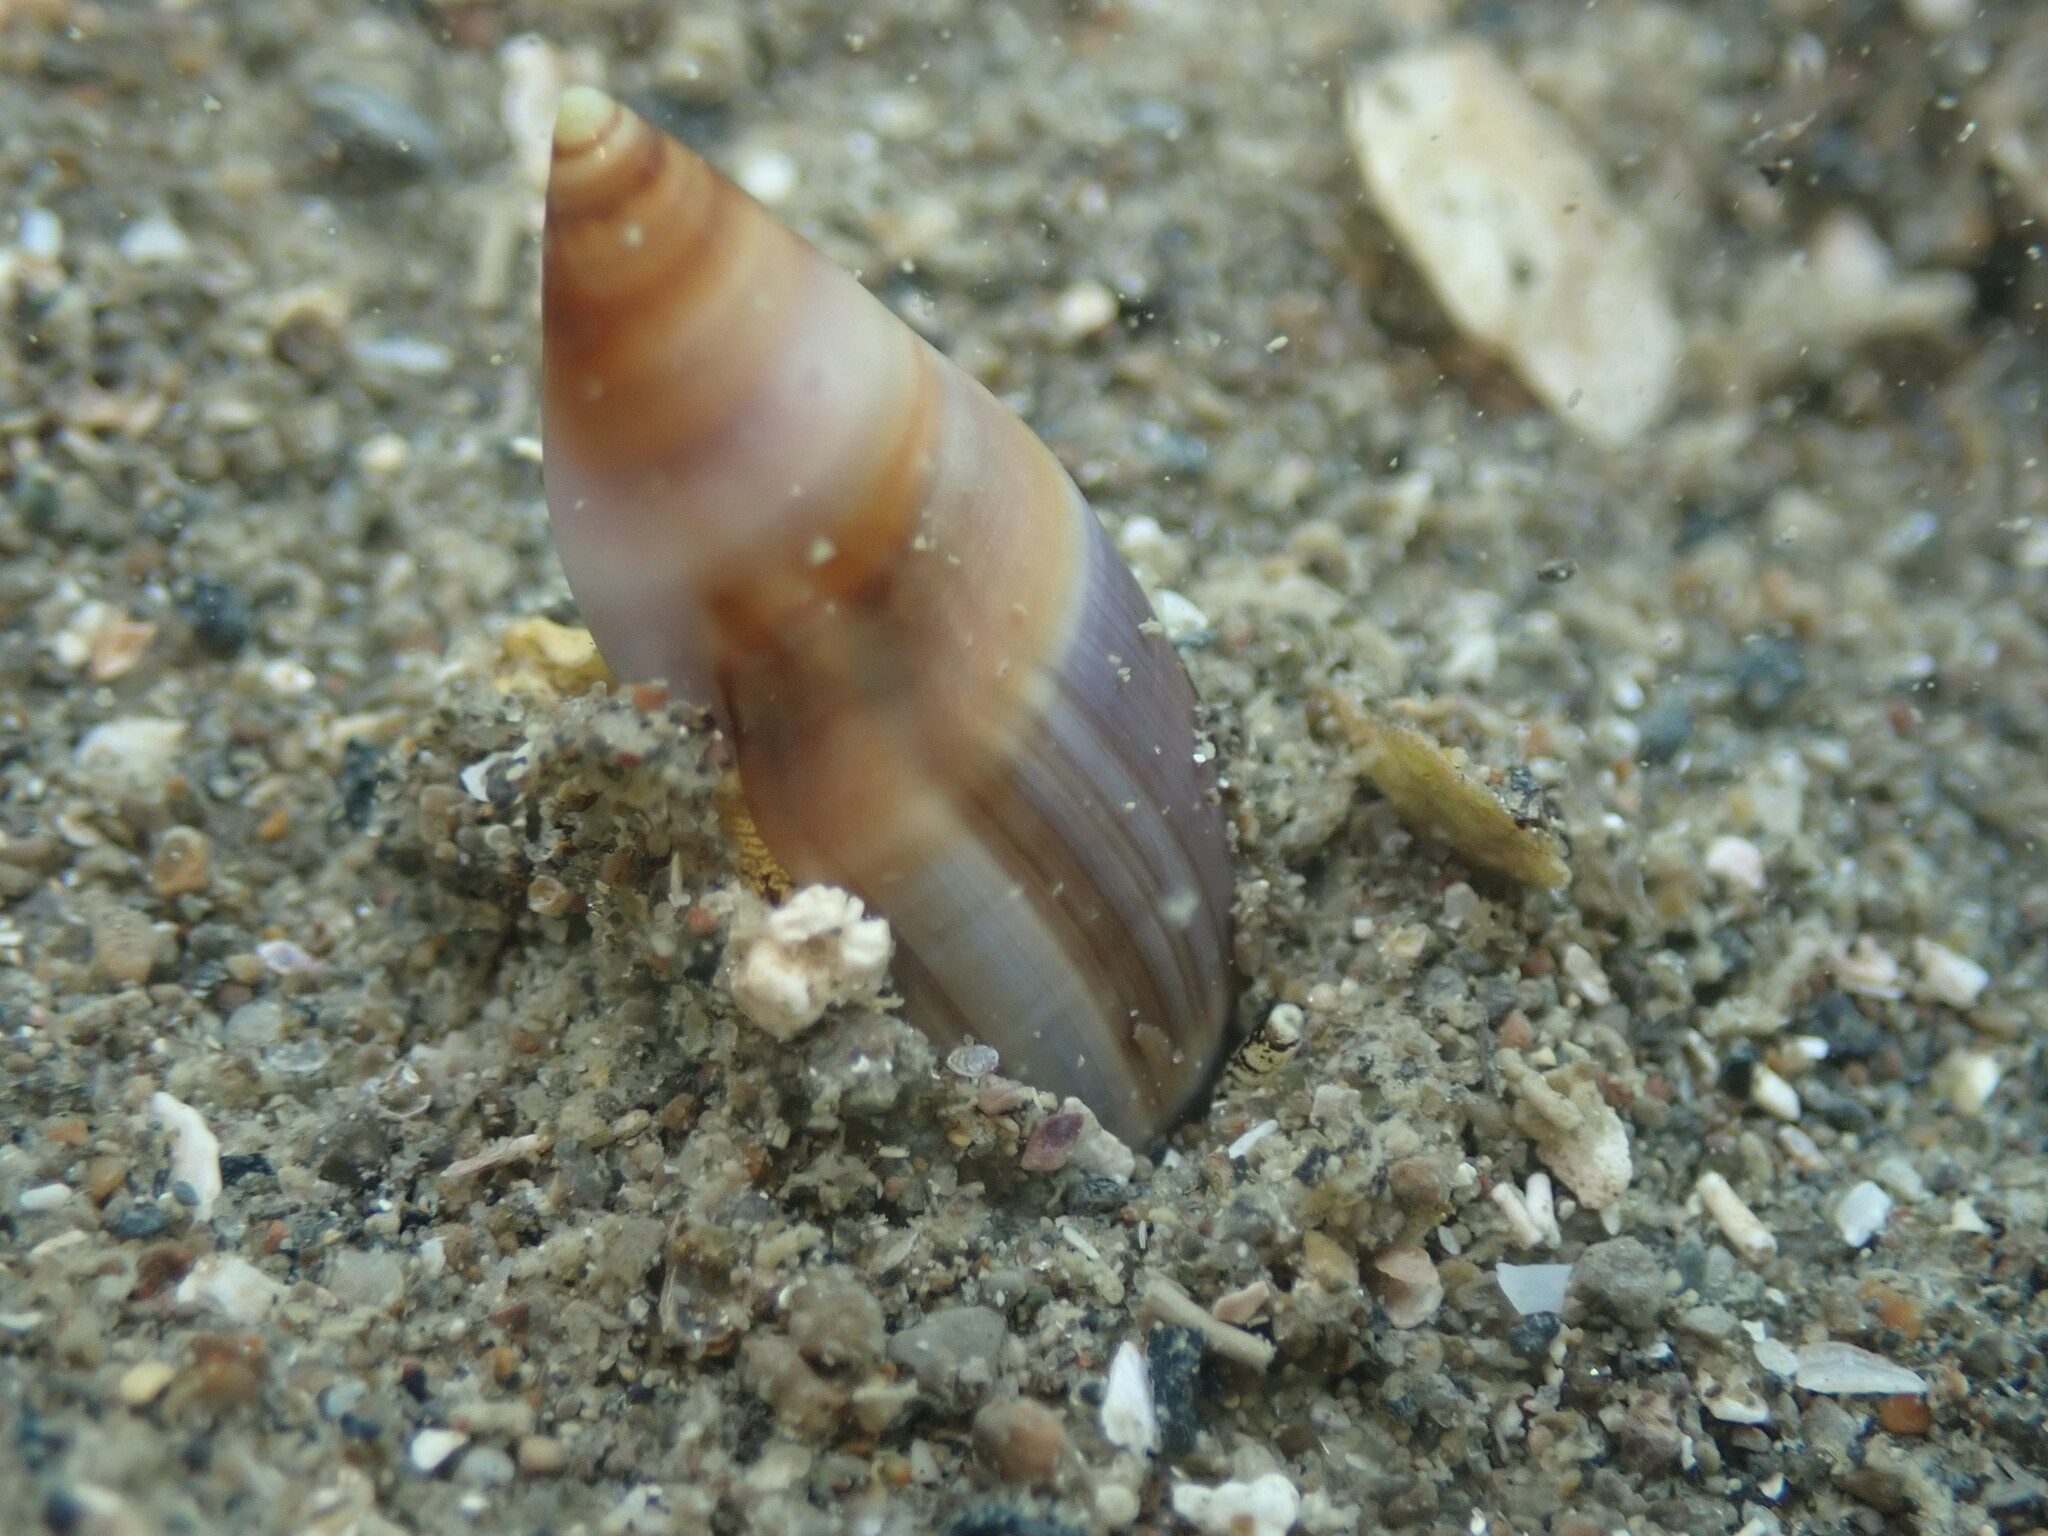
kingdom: Animalia
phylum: Mollusca
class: Gastropoda
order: Neogastropoda
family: Ancillariidae
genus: Amalda
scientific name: Amalda northlandica
